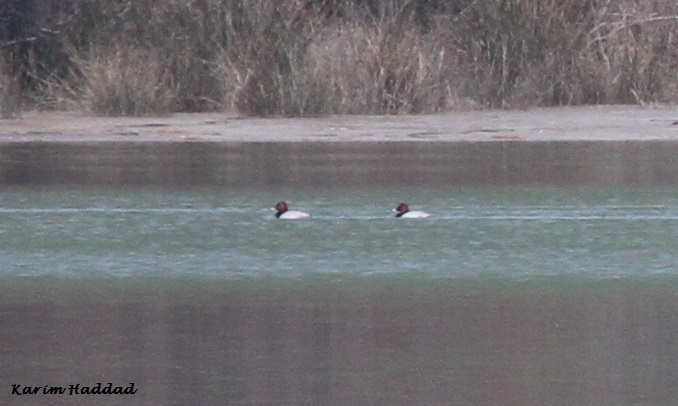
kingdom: Animalia
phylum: Chordata
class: Aves
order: Anseriformes
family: Anatidae
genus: Aythya
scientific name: Aythya ferina
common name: Common pochard
